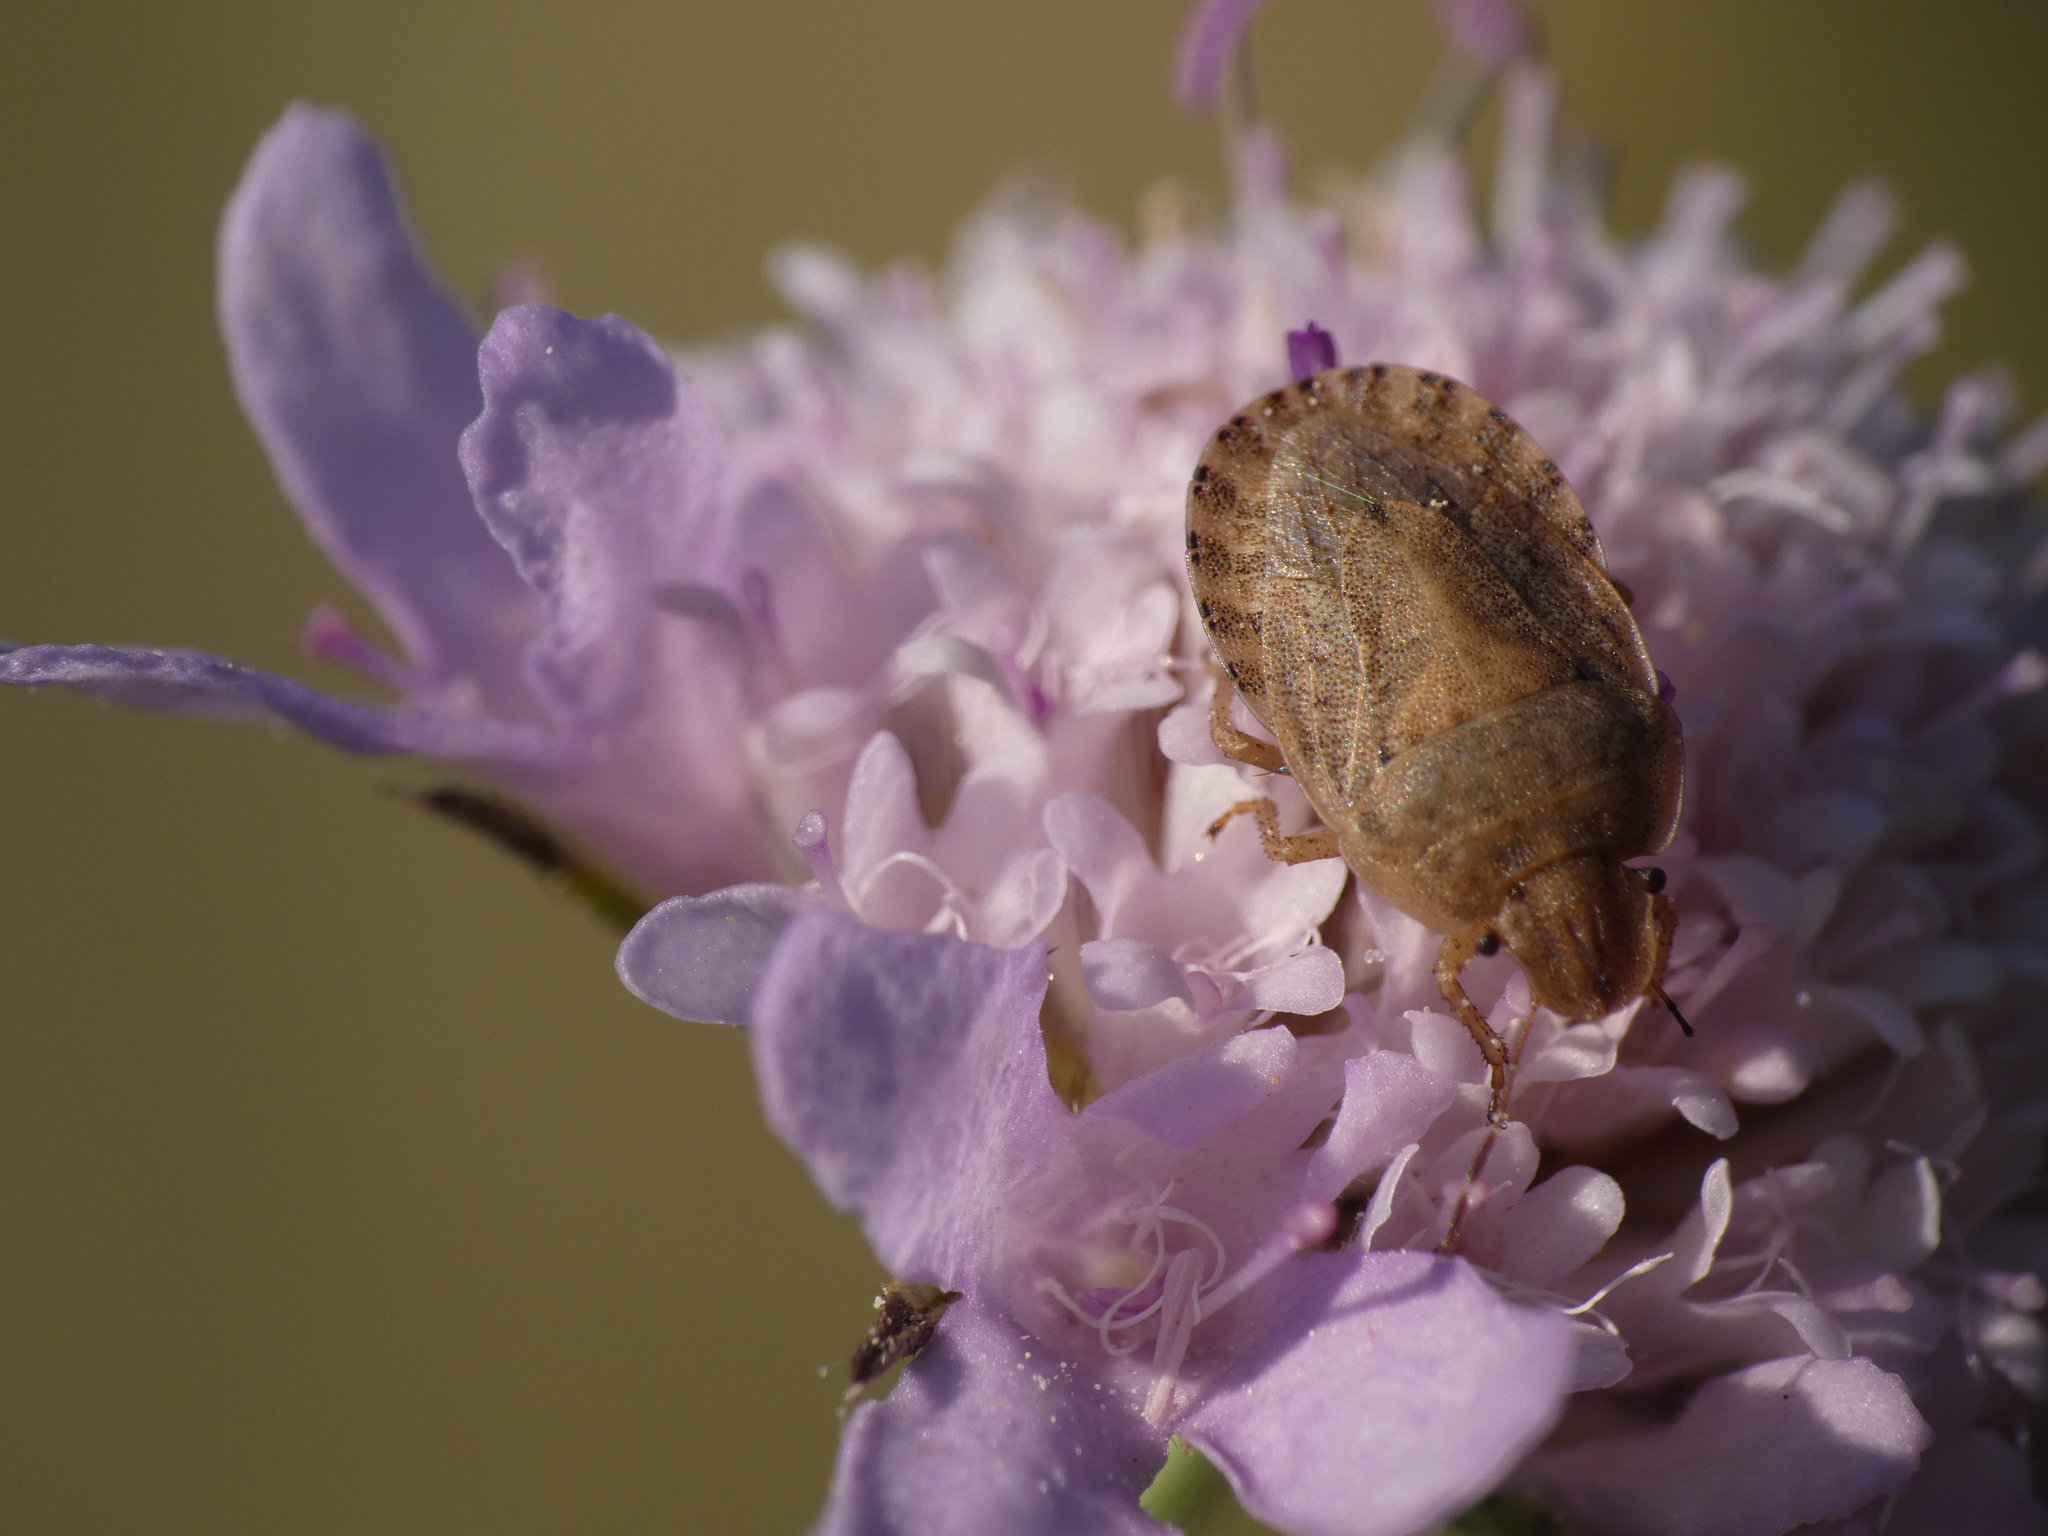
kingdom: Animalia
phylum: Arthropoda
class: Insecta
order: Hemiptera
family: Pentatomidae
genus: Sciocoris
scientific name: Sciocoris macrocephalus
